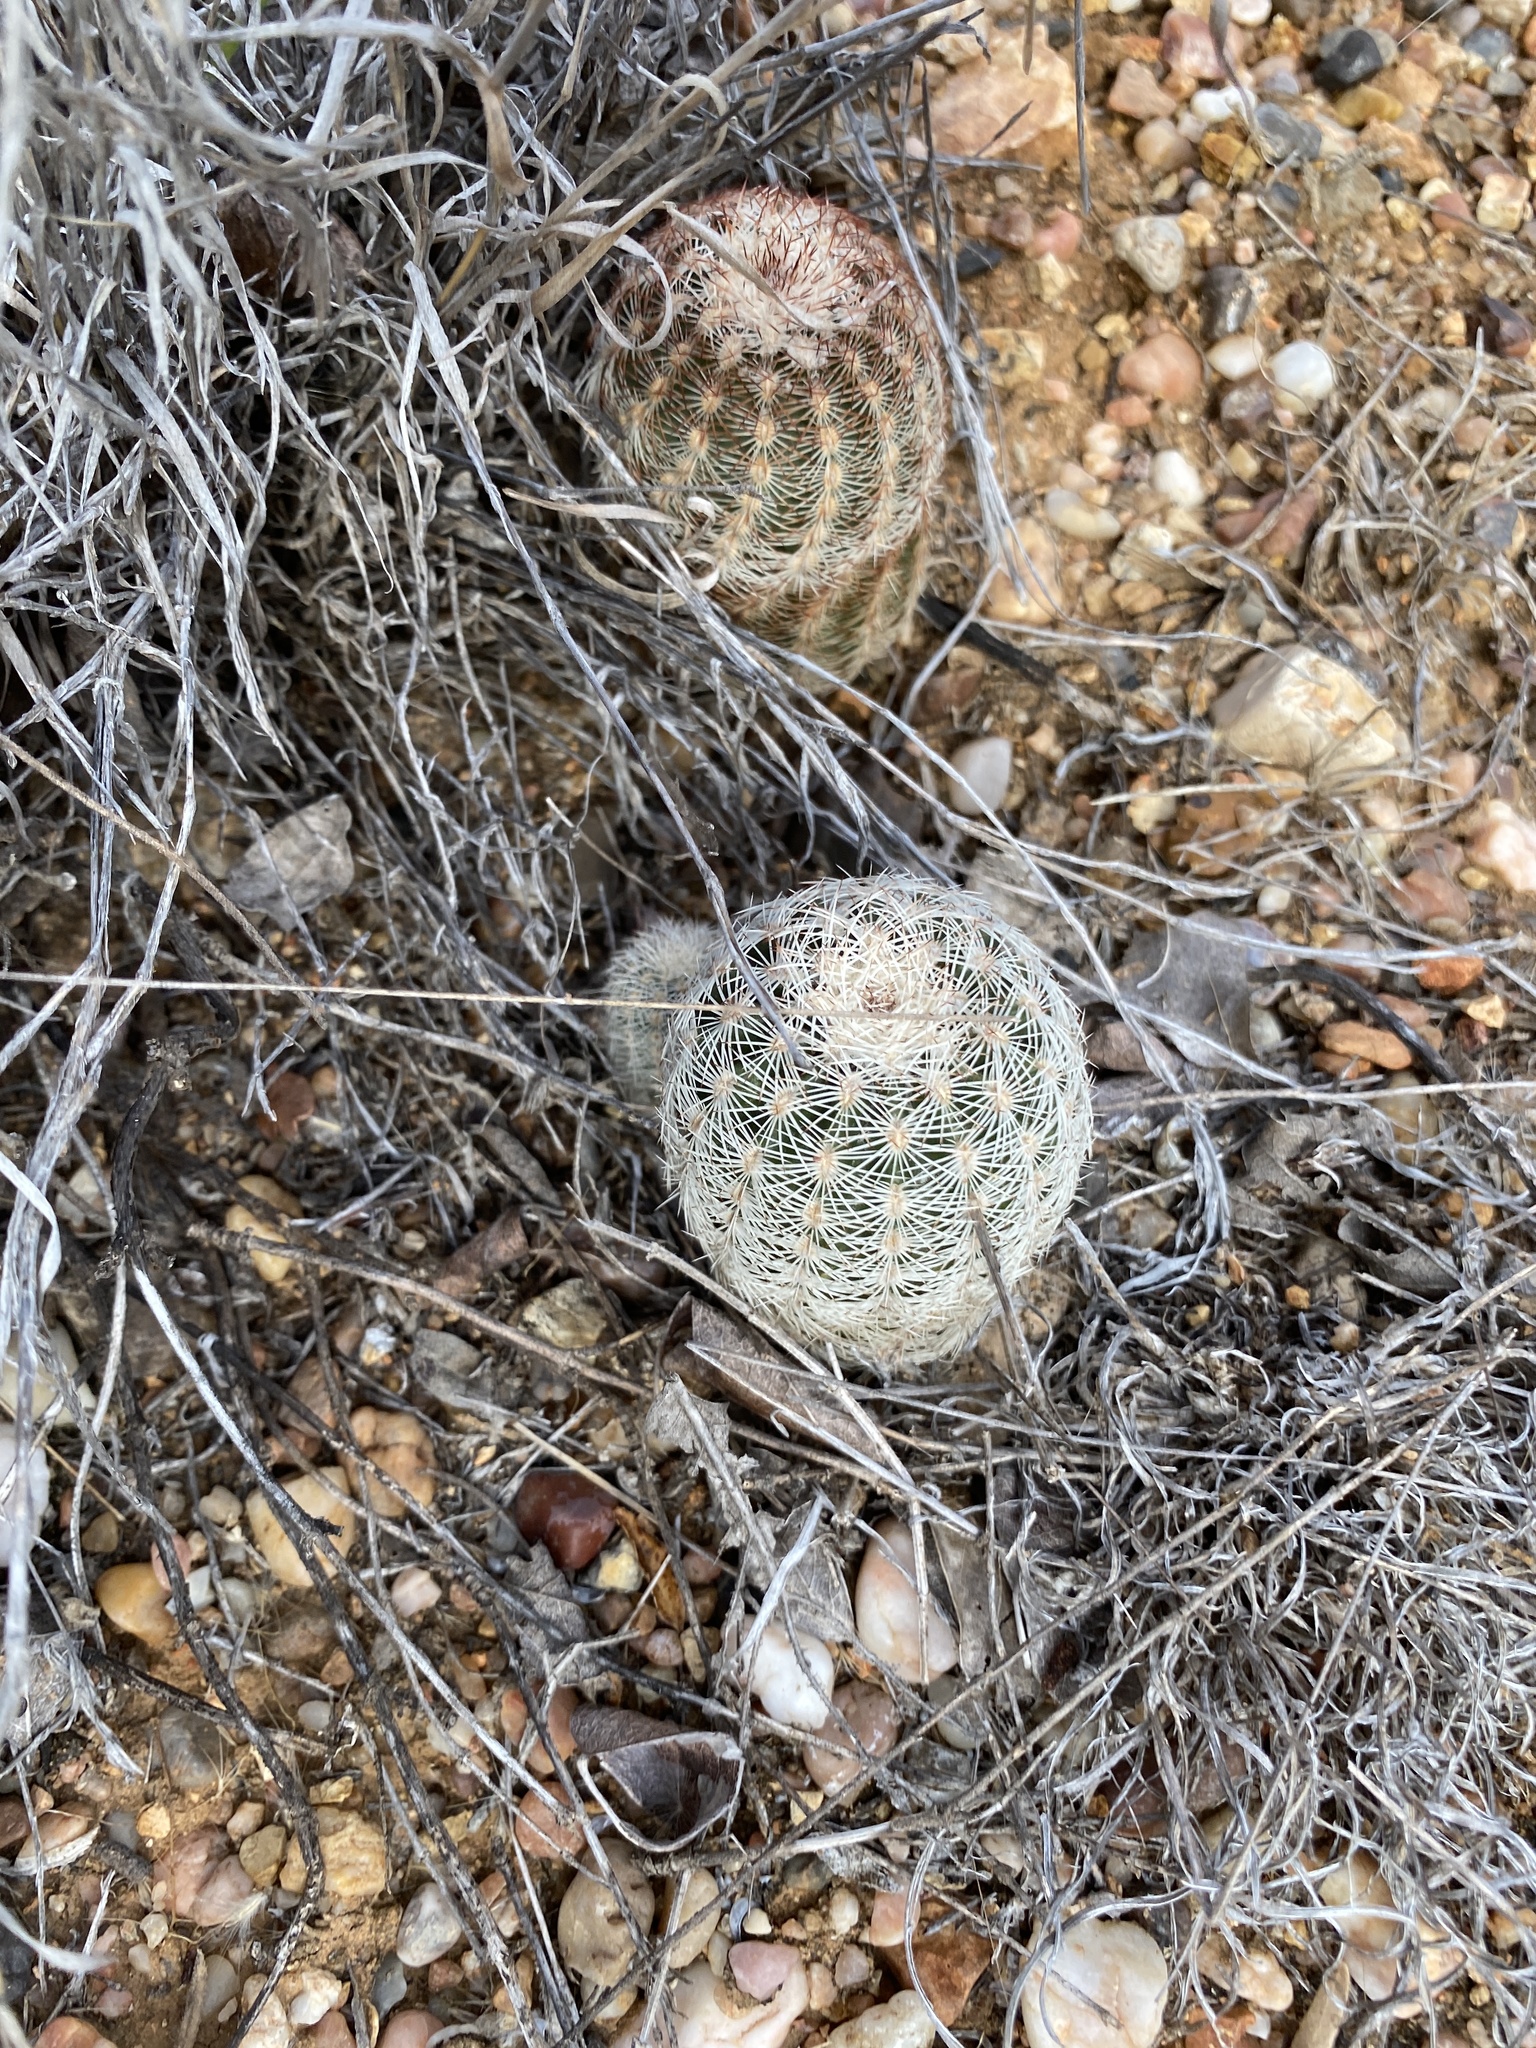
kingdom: Plantae
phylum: Tracheophyta
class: Magnoliopsida
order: Caryophyllales
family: Cactaceae
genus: Echinocereus
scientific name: Echinocereus reichenbachii
